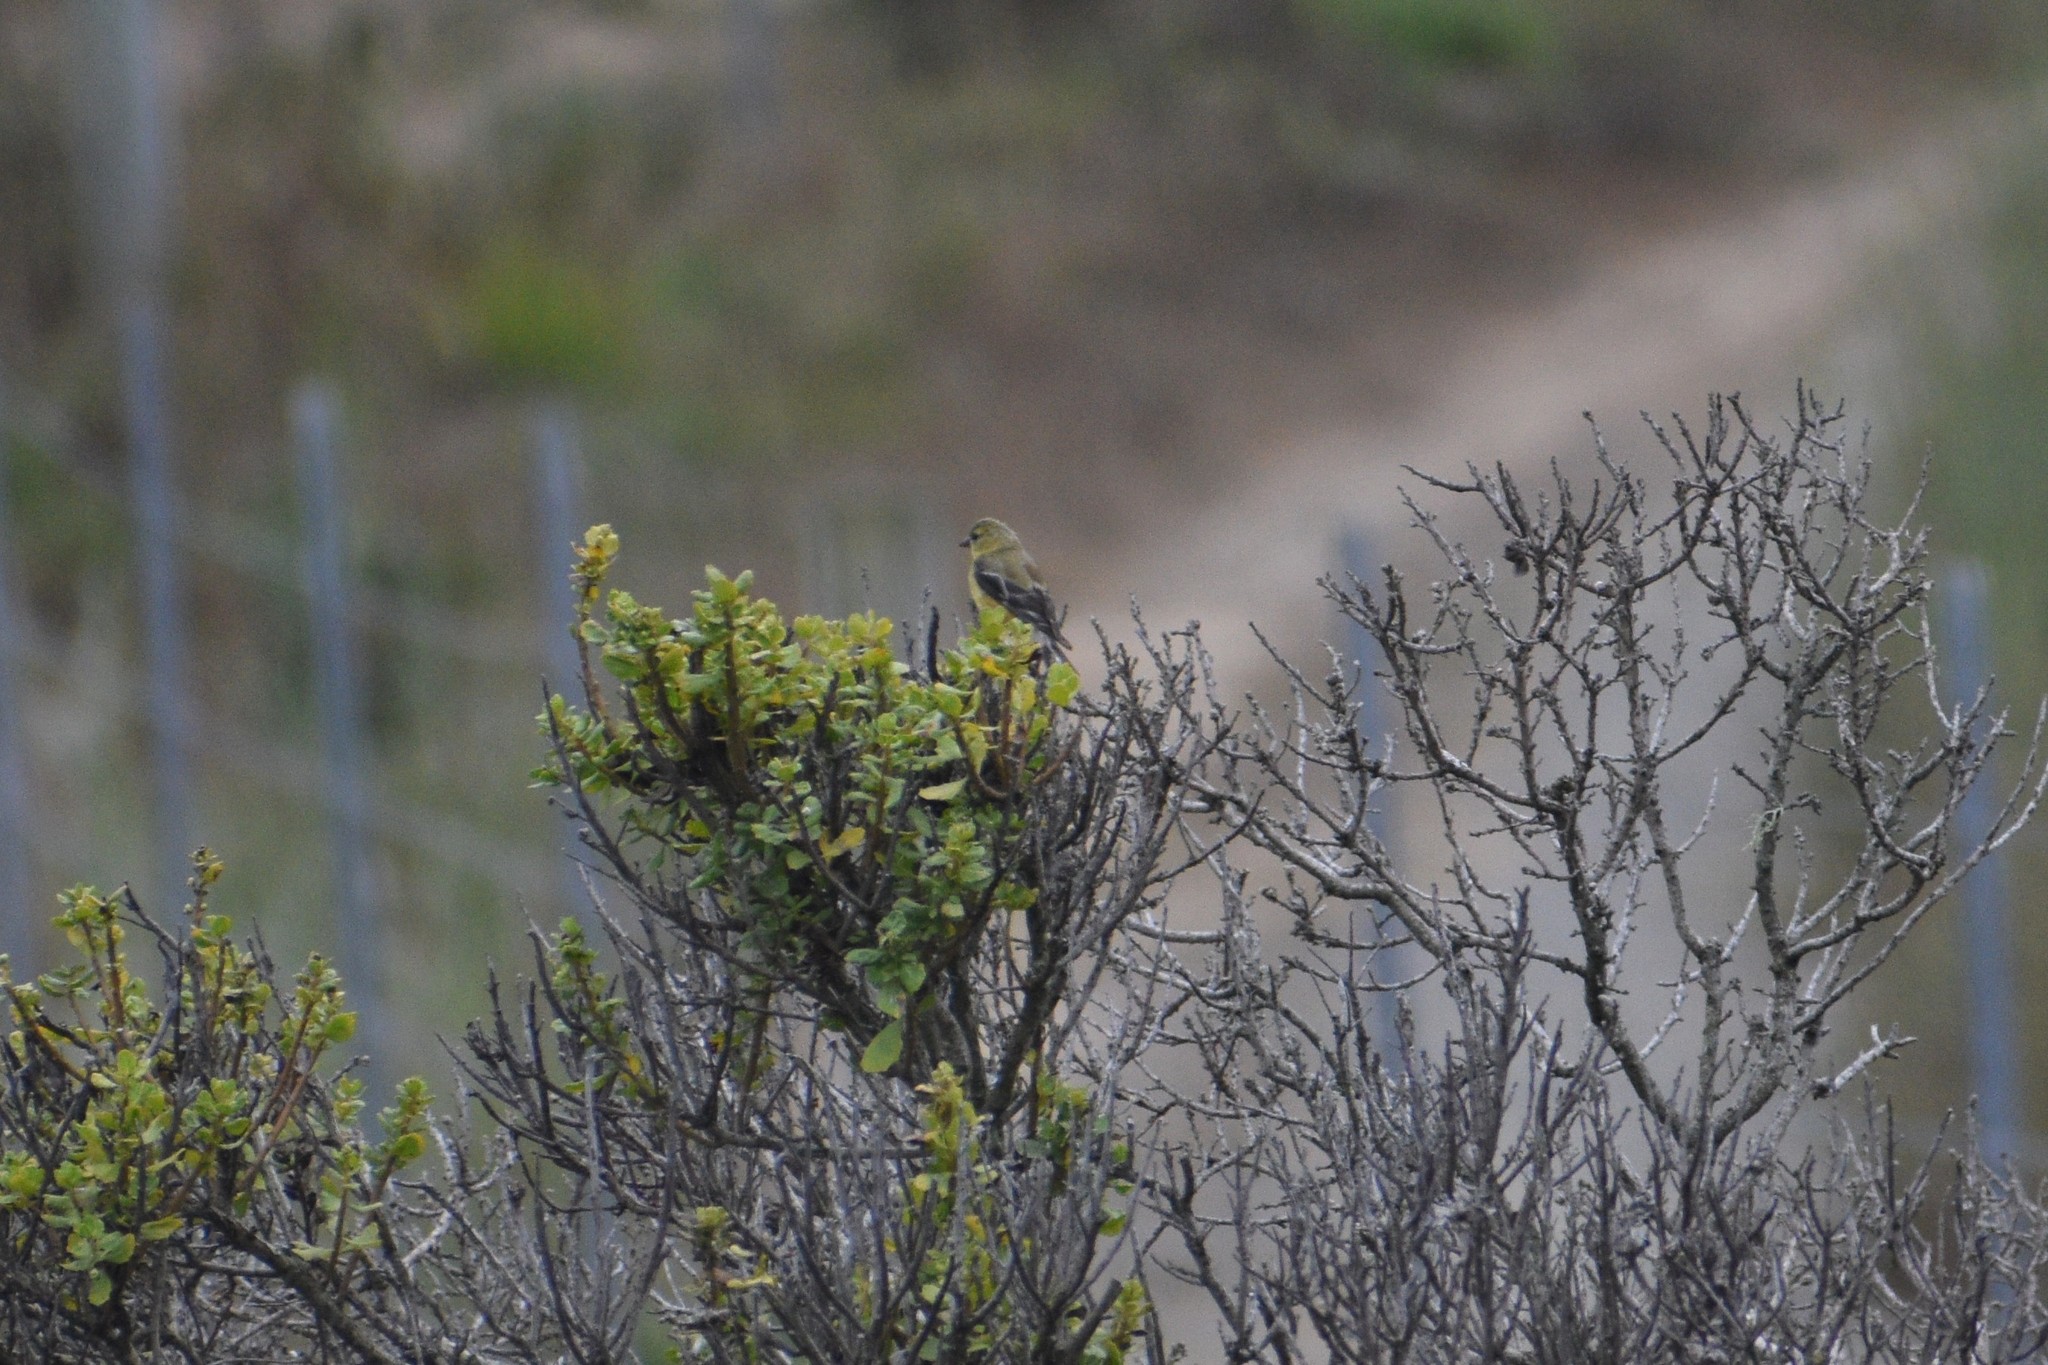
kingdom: Animalia
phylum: Chordata
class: Aves
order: Passeriformes
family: Fringillidae
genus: Spinus
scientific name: Spinus tristis
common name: American goldfinch
